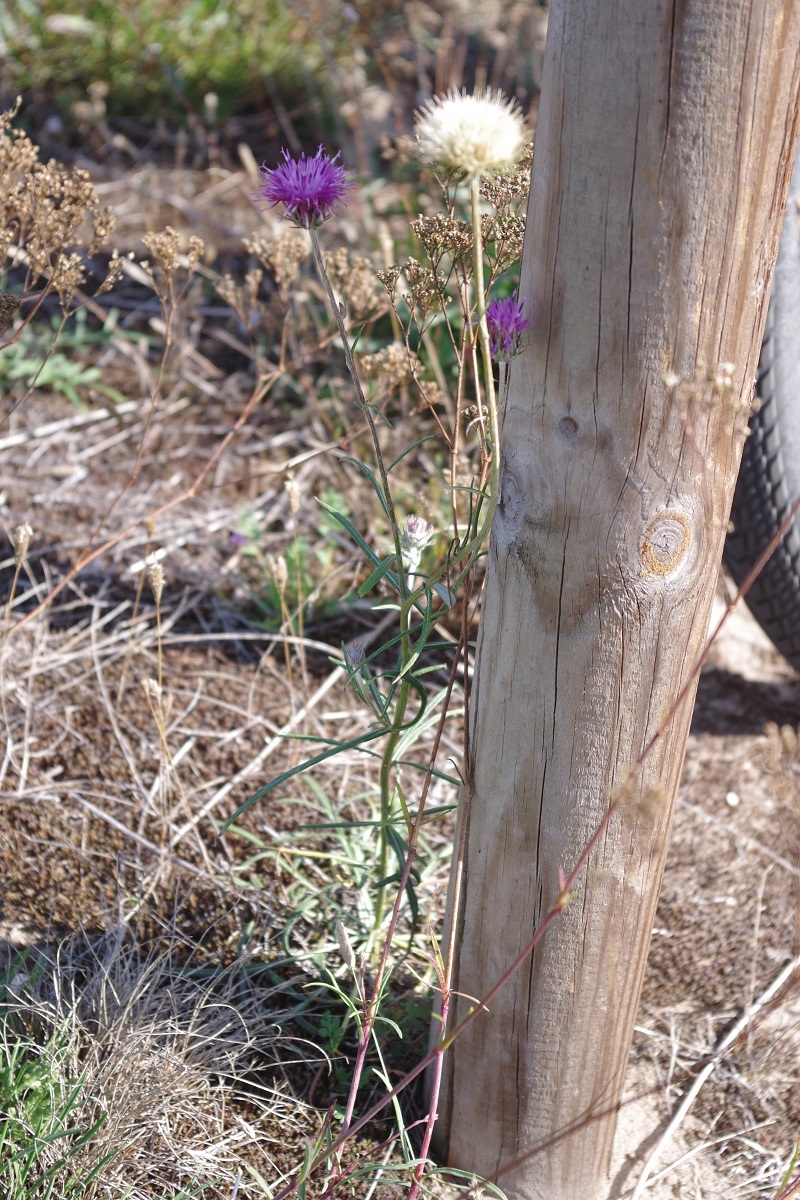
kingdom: Plantae
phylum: Tracheophyta
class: Magnoliopsida
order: Asterales
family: Asteraceae
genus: Jurinea
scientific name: Jurinea cyanoides
